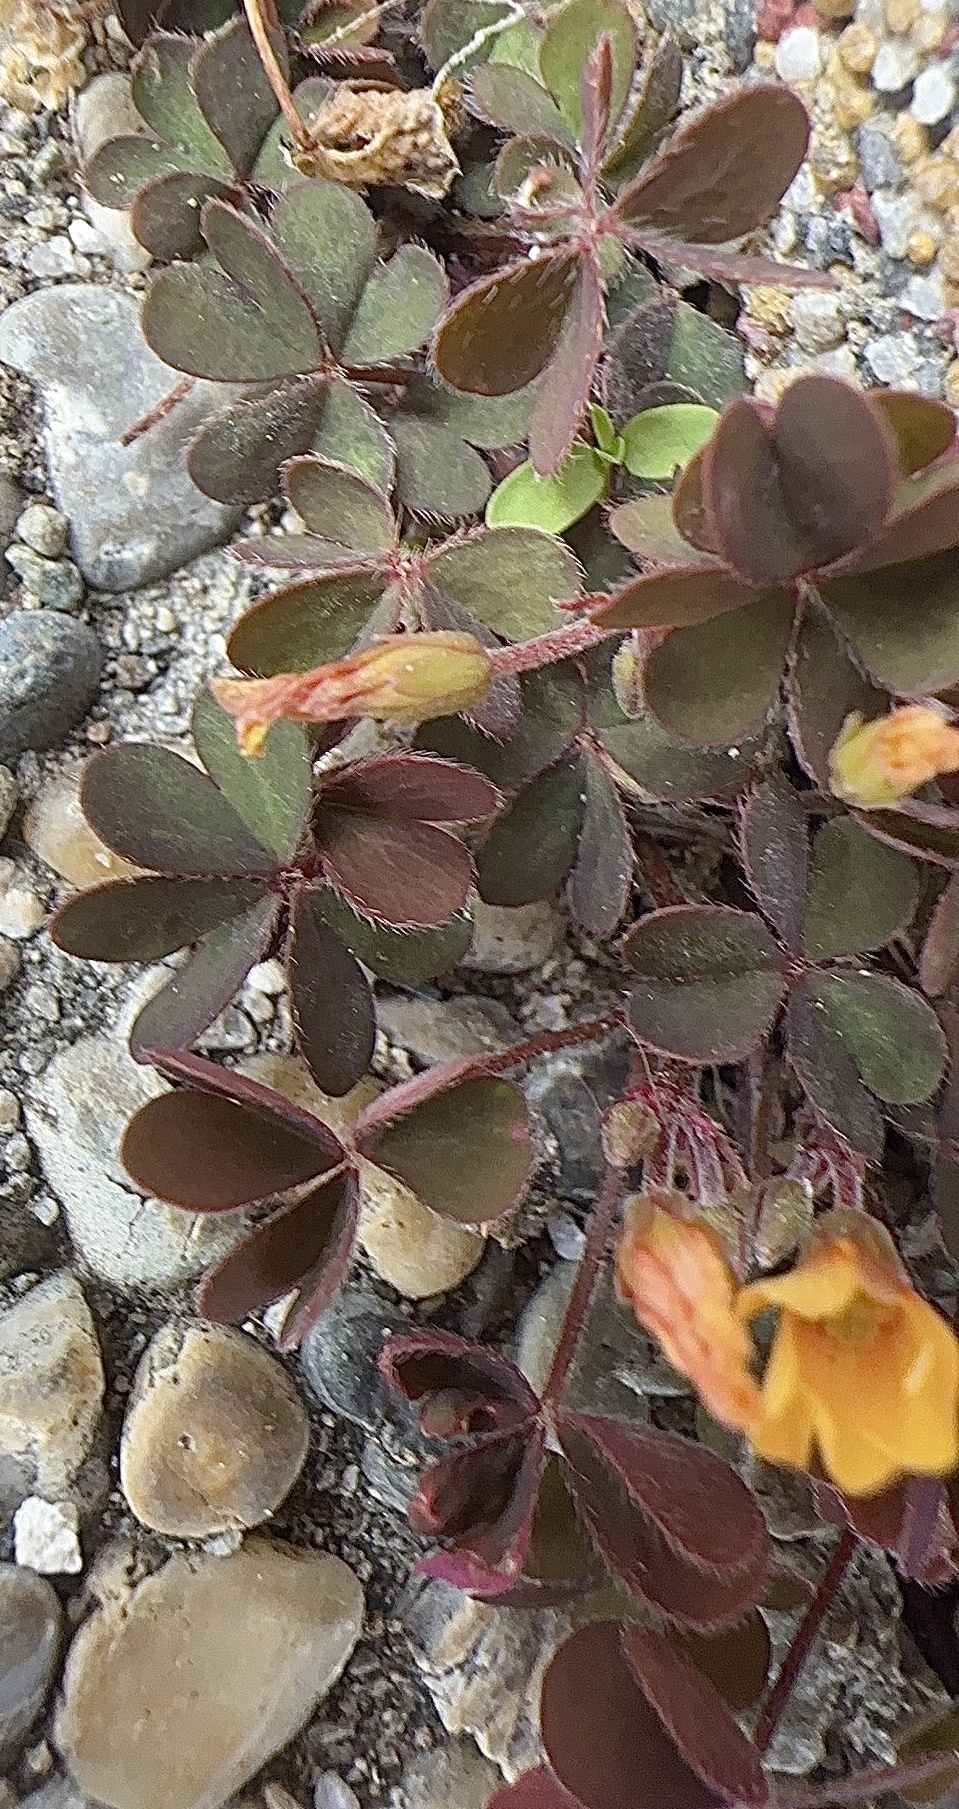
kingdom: Plantae
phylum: Tracheophyta
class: Magnoliopsida
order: Oxalidales
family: Oxalidaceae
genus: Oxalis
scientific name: Oxalis corniculata
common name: Procumbent yellow-sorrel
